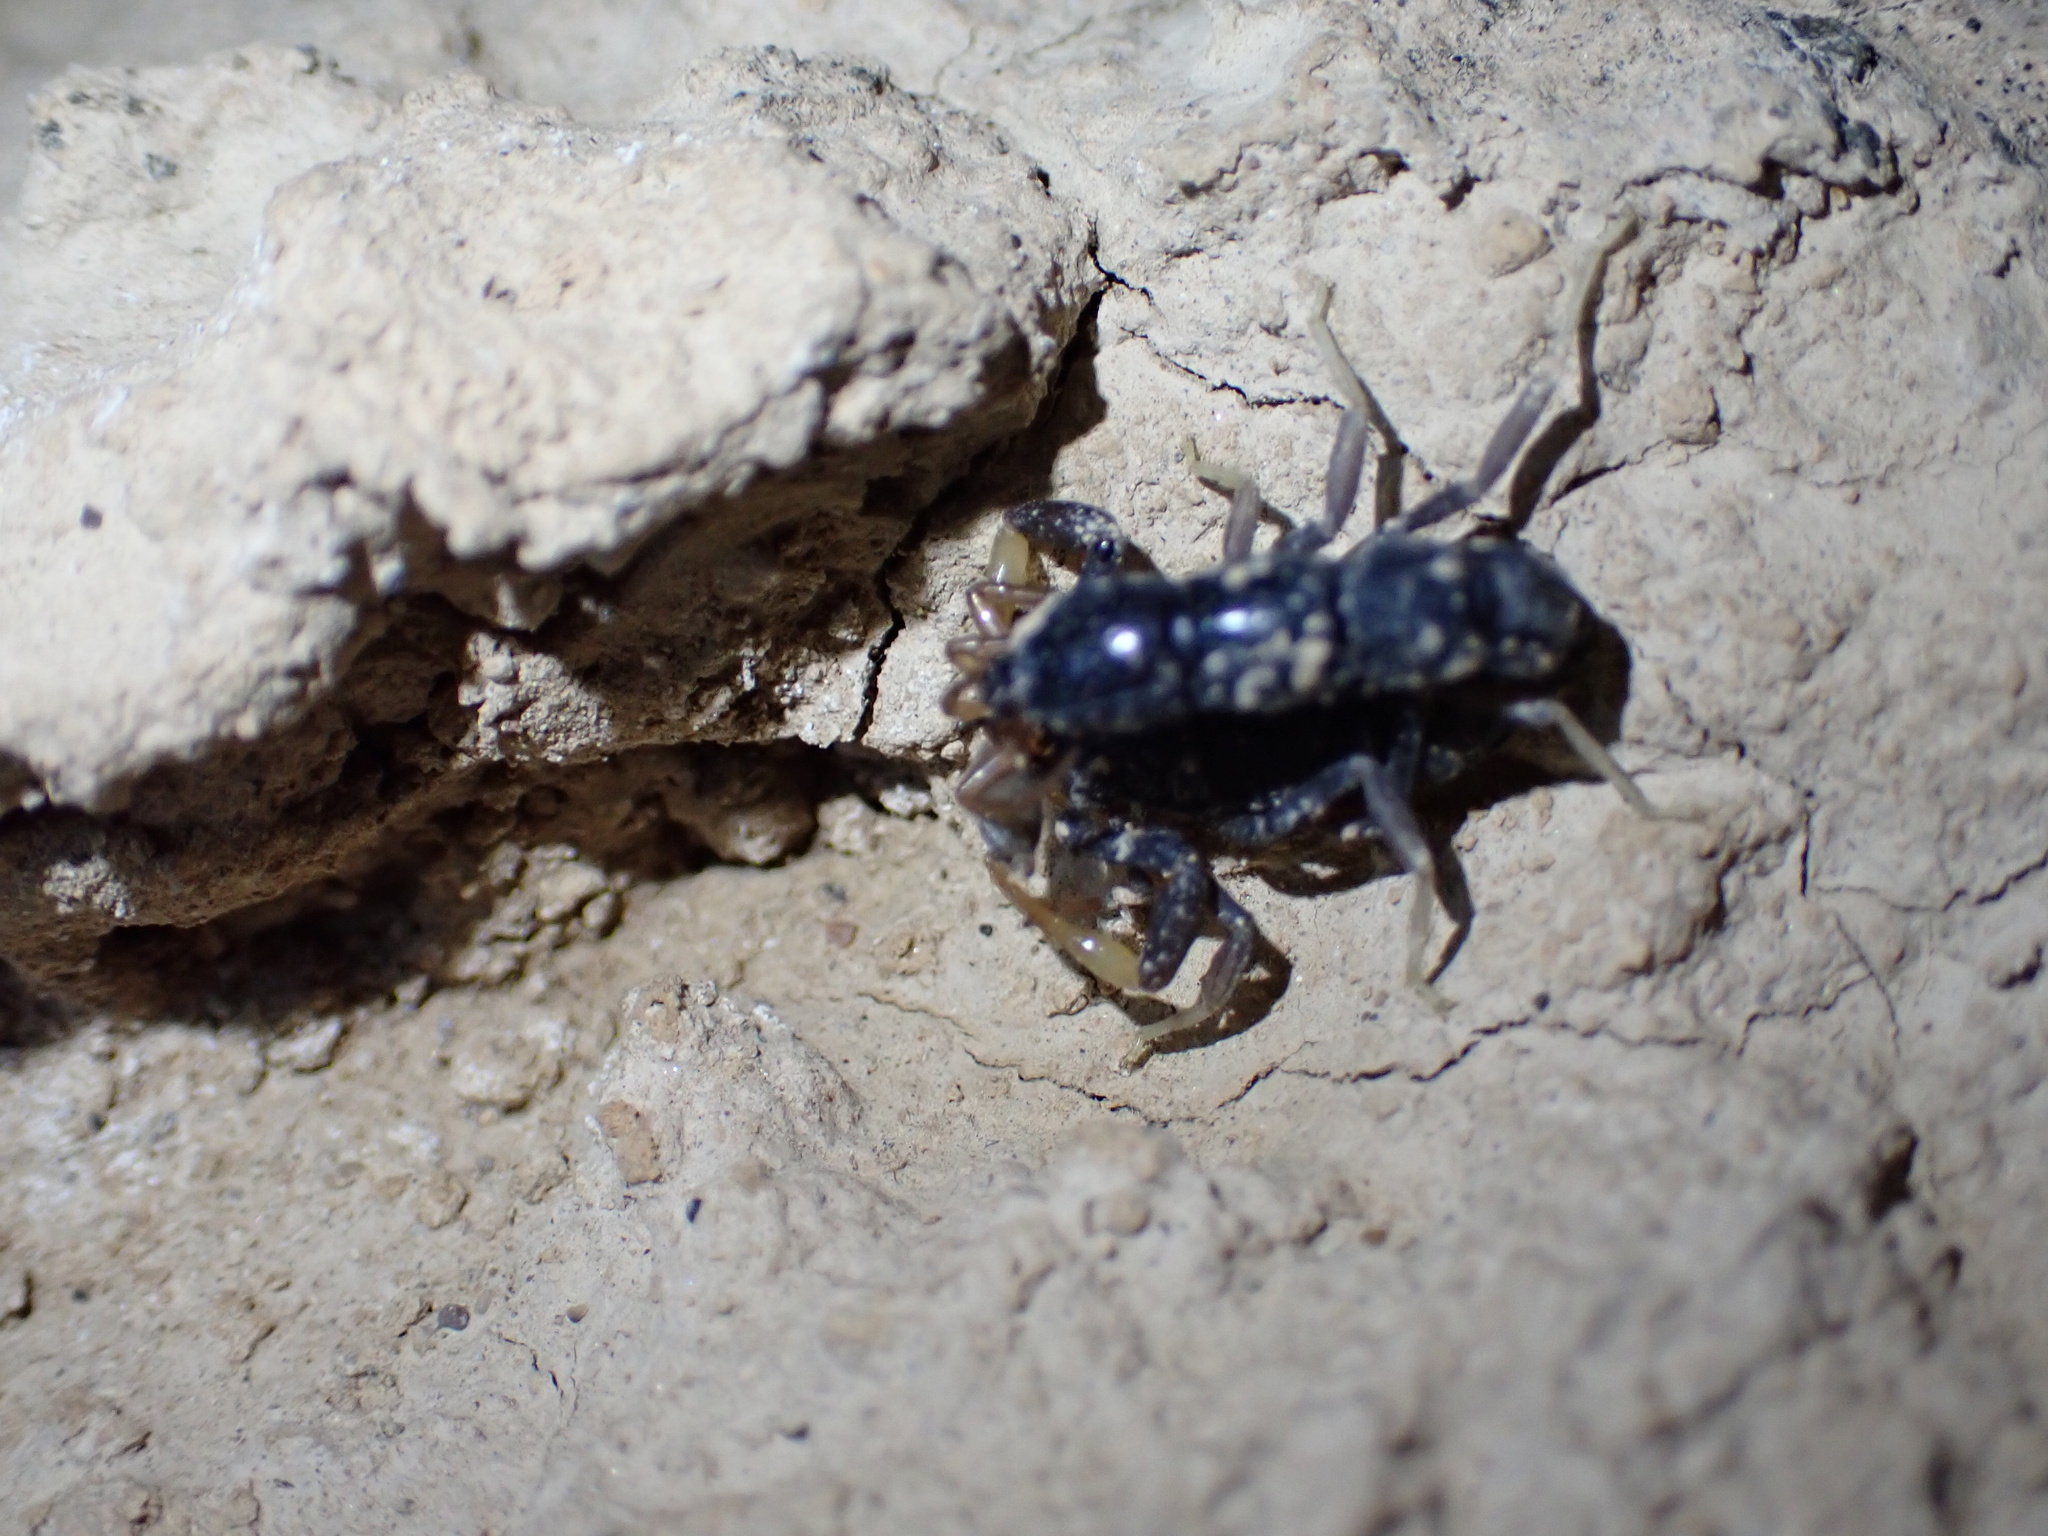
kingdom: Animalia
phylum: Arthropoda
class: Arachnida
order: Scorpiones
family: Buthidae
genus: Orthochirus
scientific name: Orthochirus mesopotamicus
